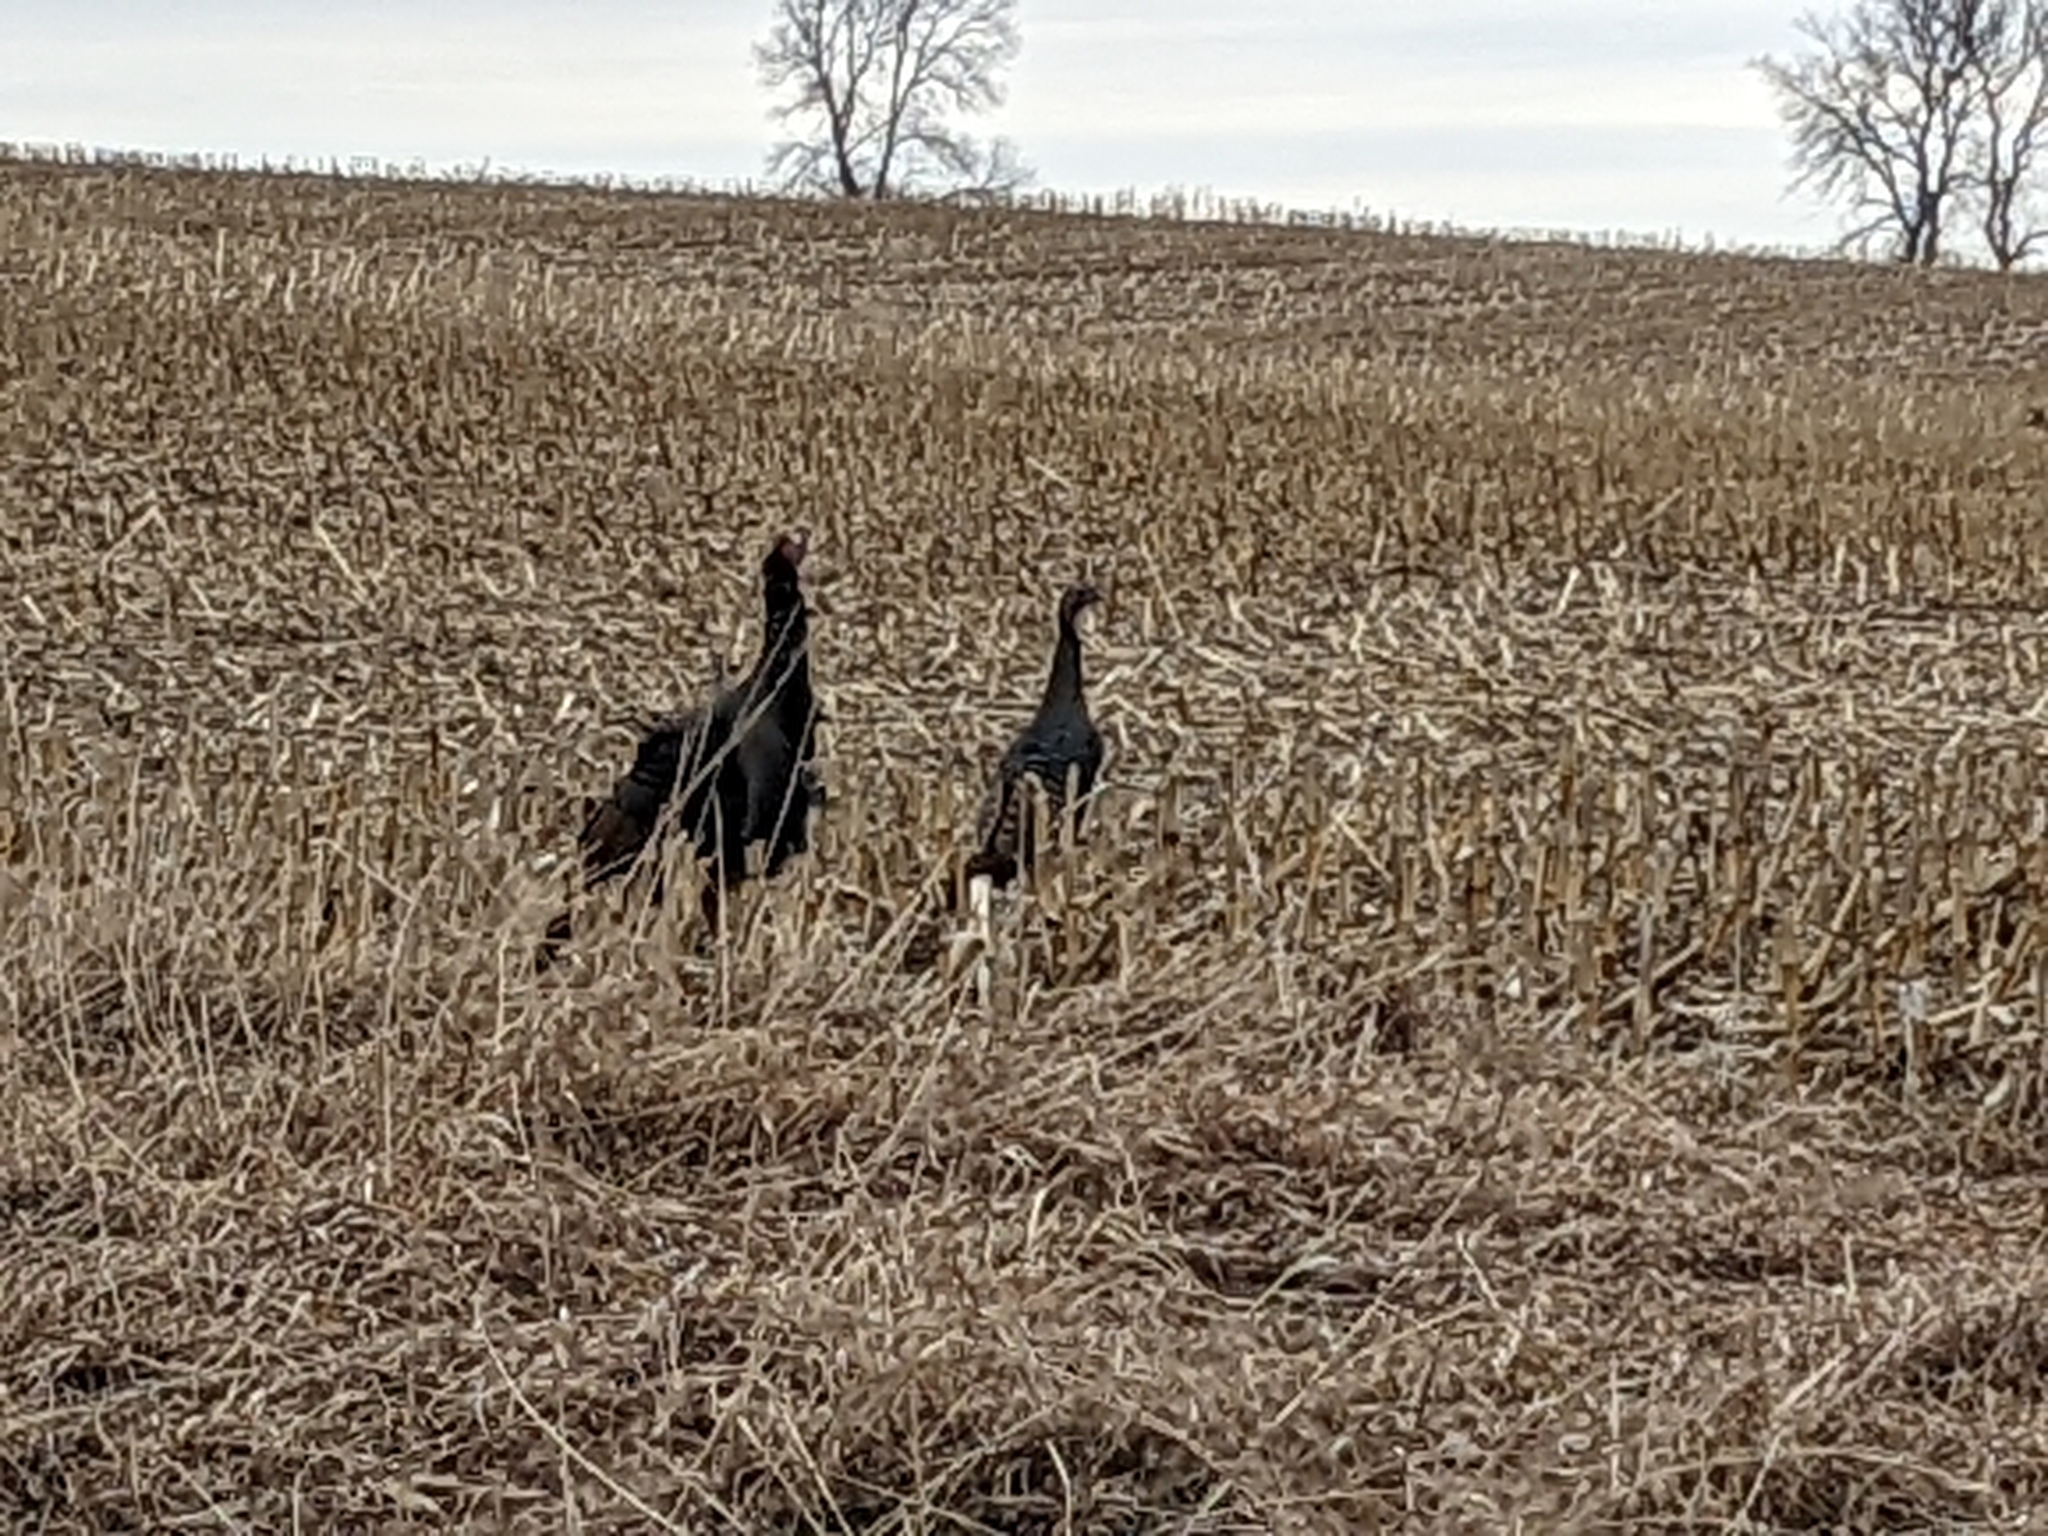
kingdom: Animalia
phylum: Chordata
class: Aves
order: Galliformes
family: Phasianidae
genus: Meleagris
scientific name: Meleagris gallopavo
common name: Wild turkey
